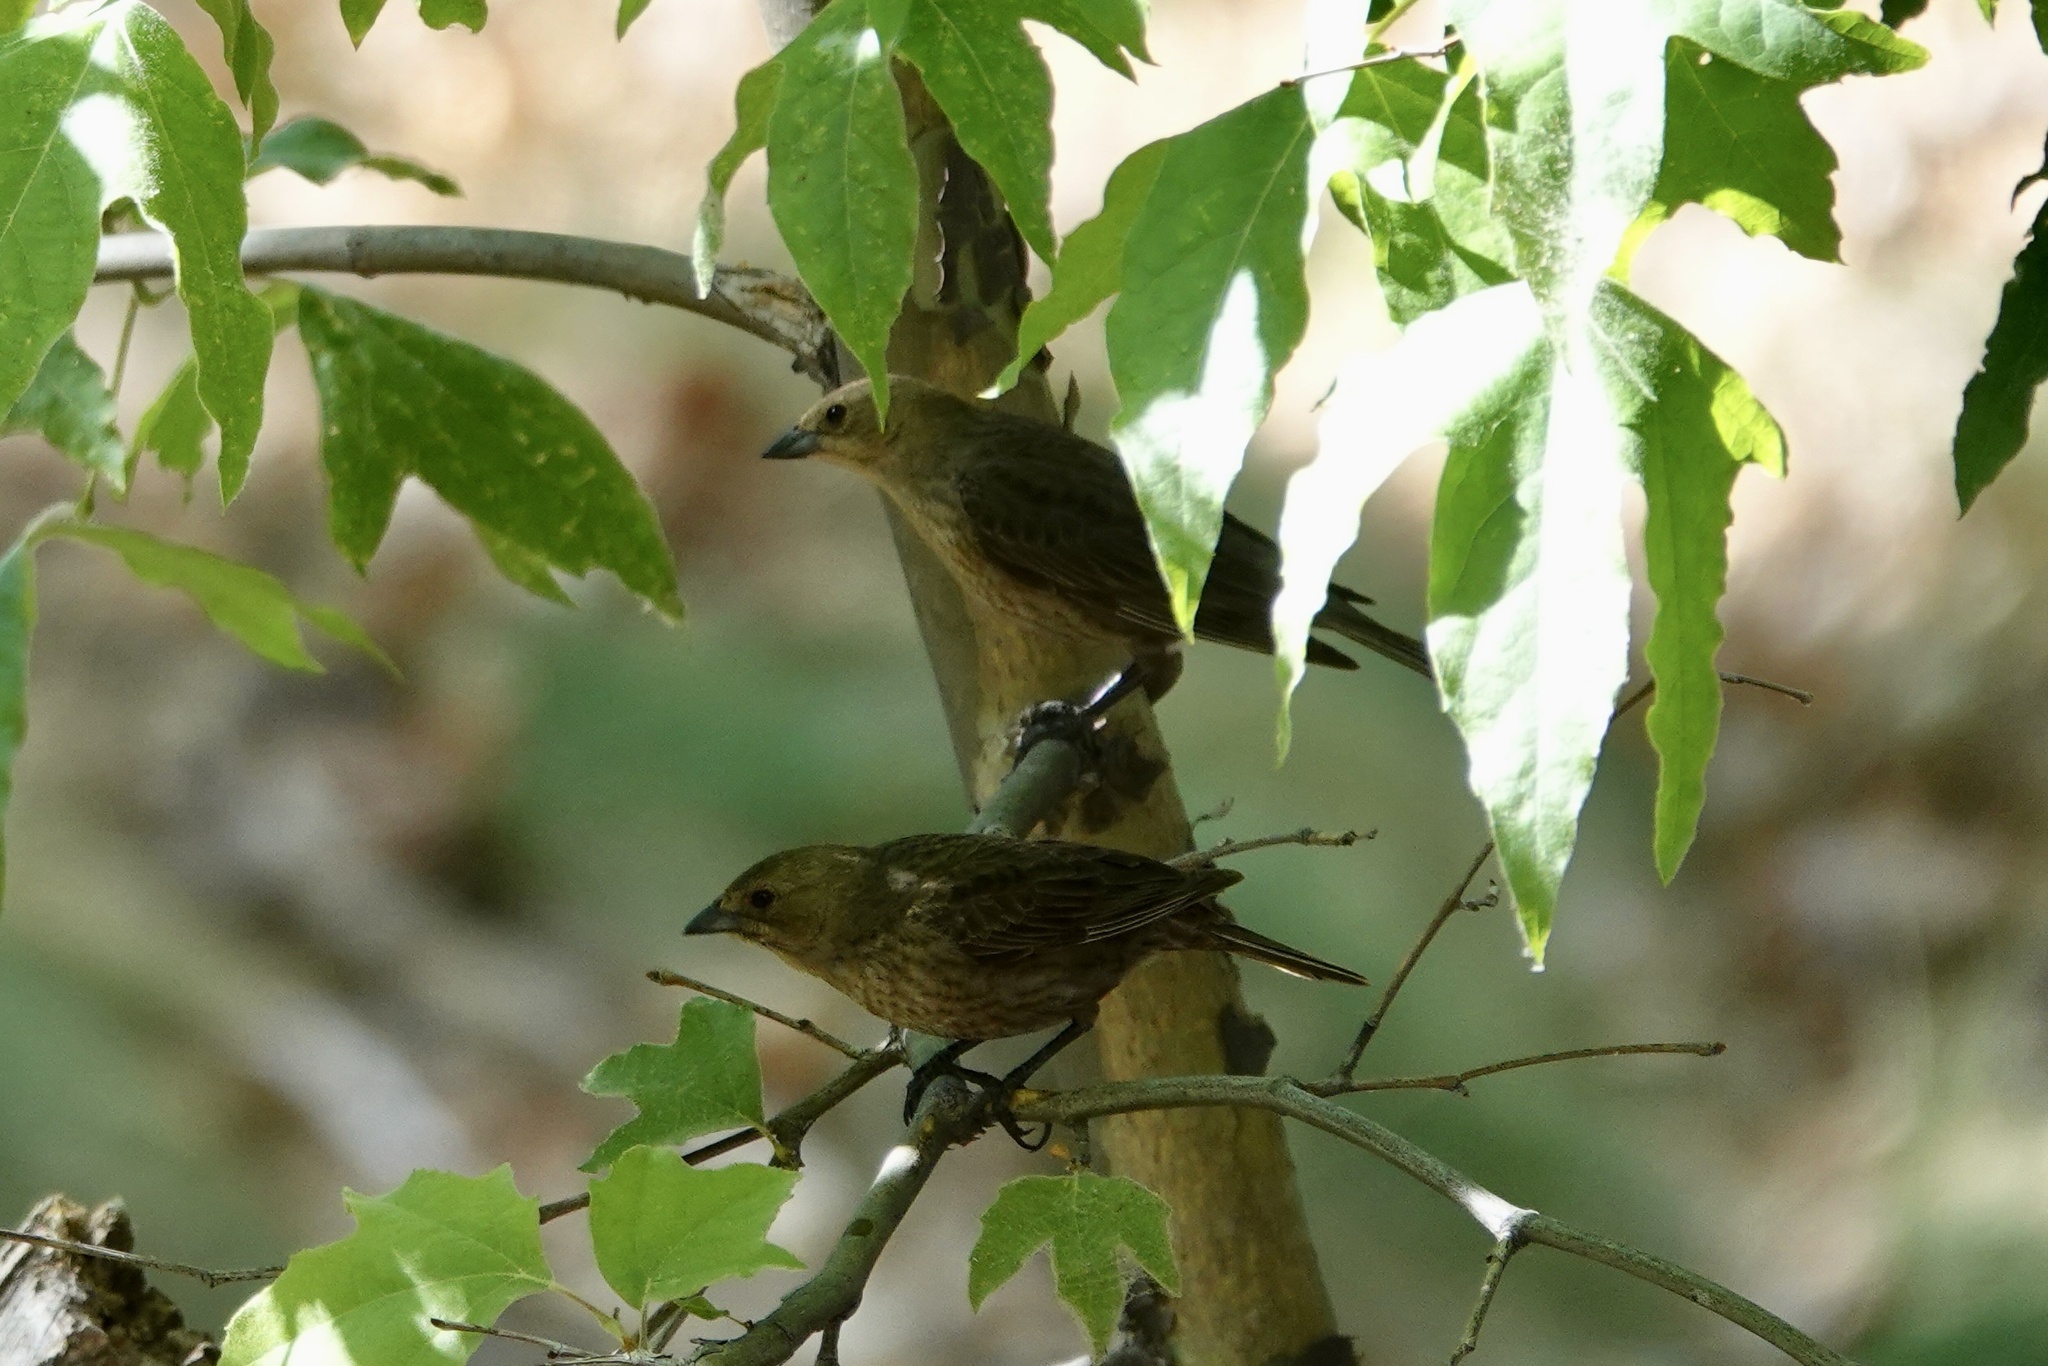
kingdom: Animalia
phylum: Chordata
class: Aves
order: Passeriformes
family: Icteridae
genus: Molothrus
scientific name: Molothrus ater
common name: Brown-headed cowbird
